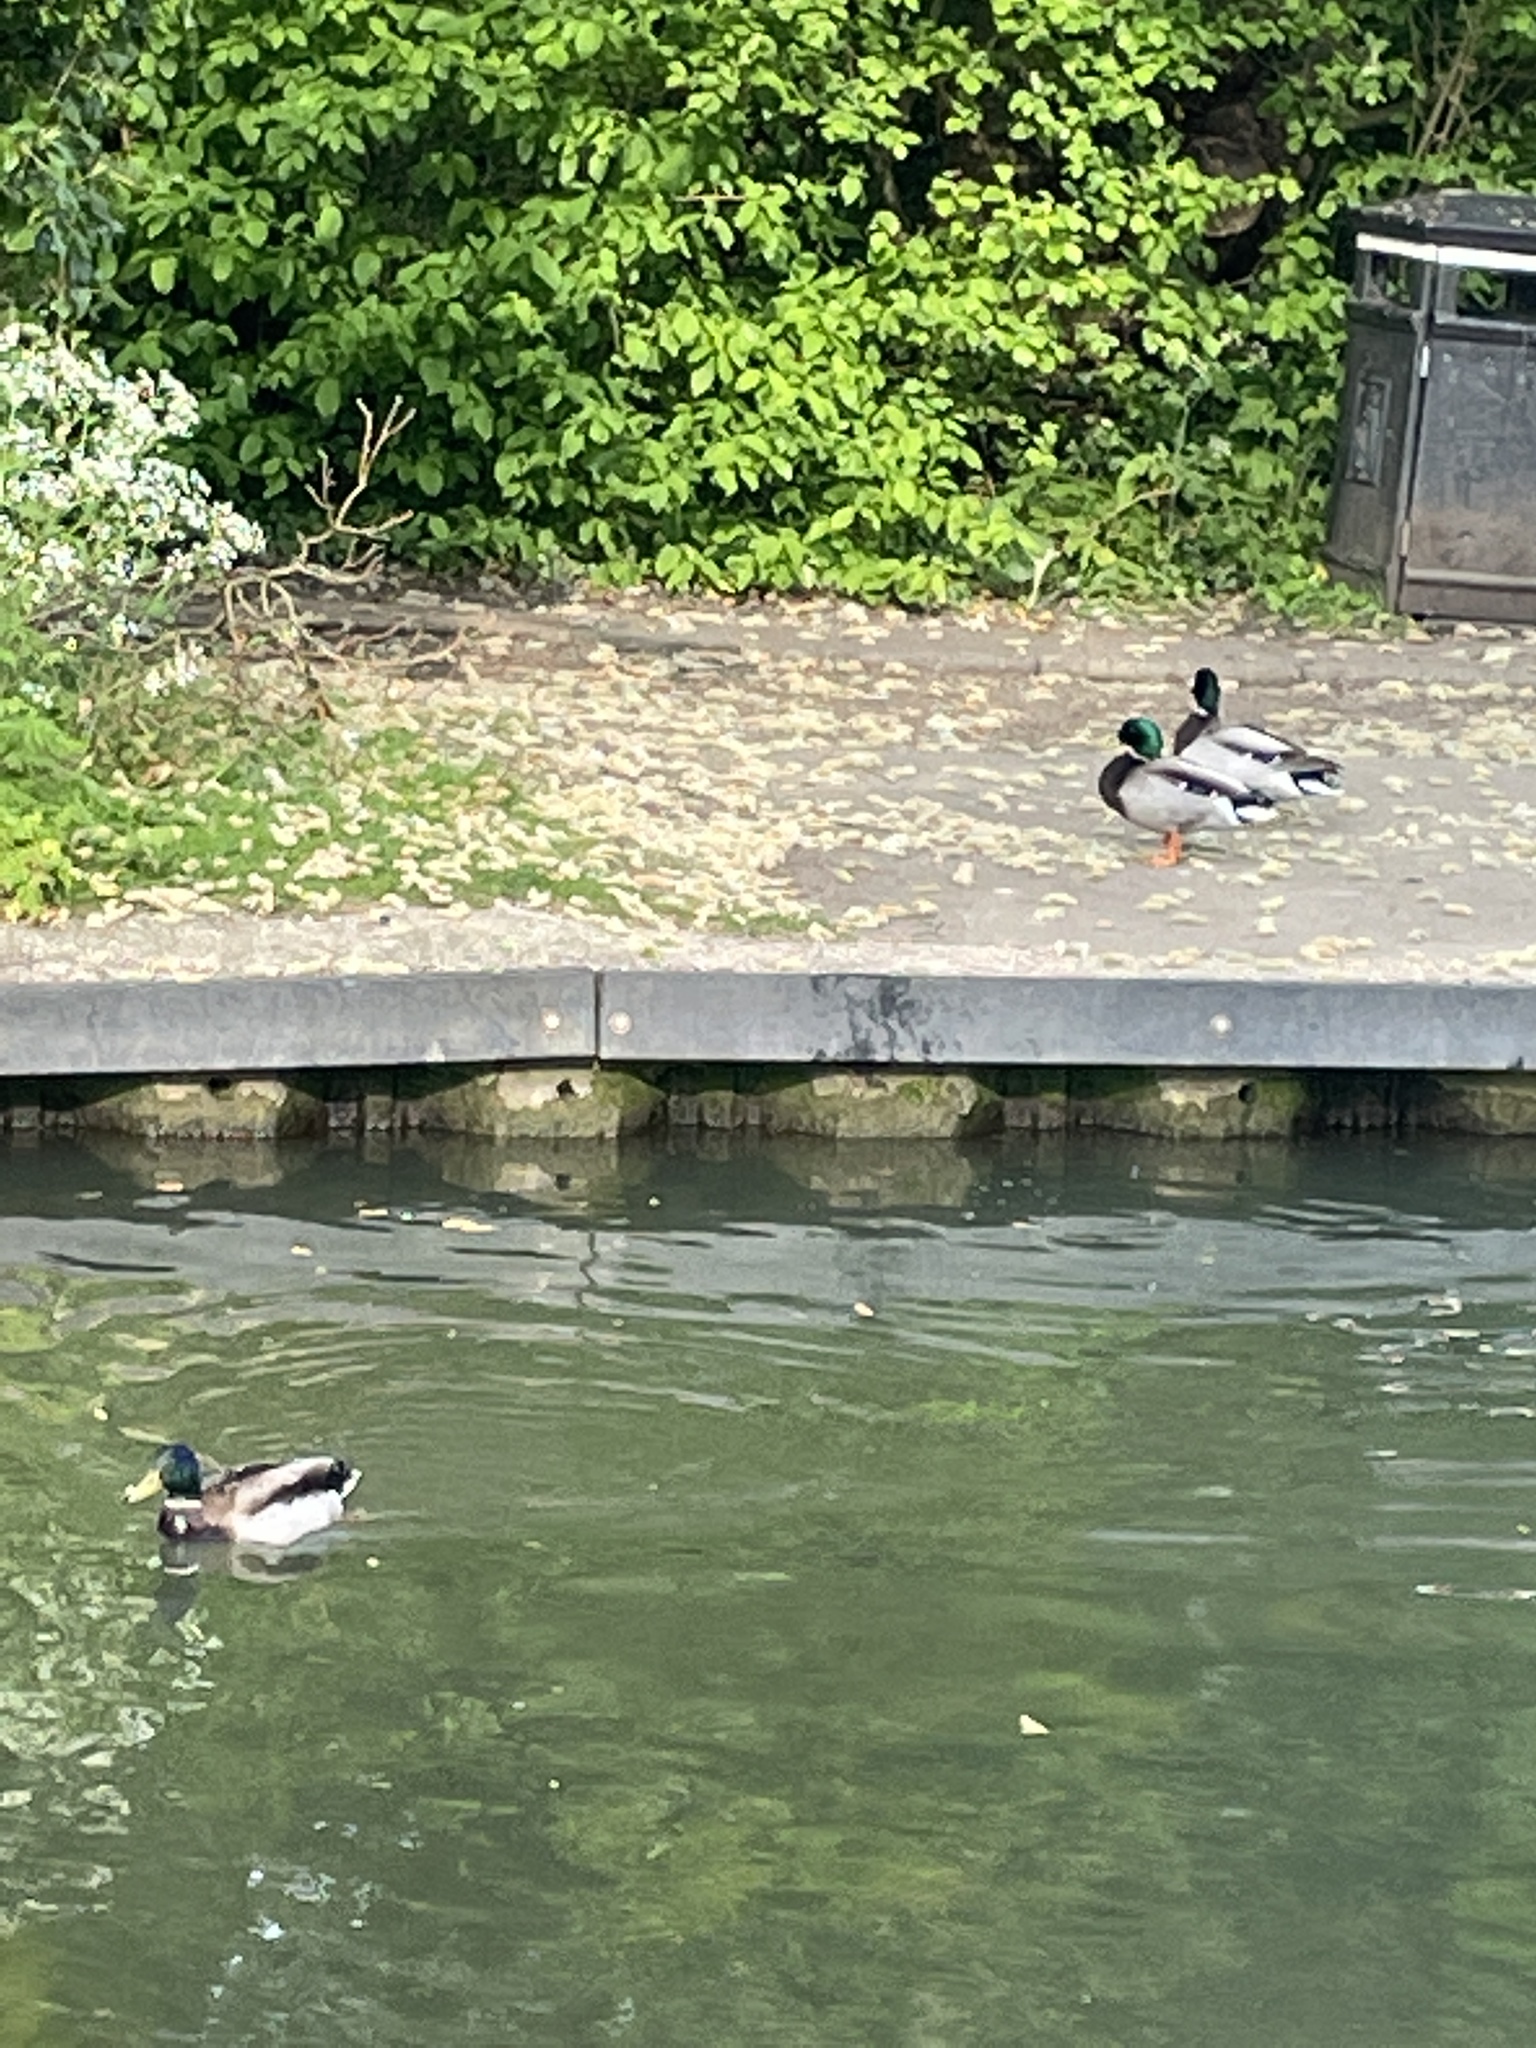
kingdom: Animalia
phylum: Chordata
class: Aves
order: Anseriformes
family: Anatidae
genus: Anas
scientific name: Anas platyrhynchos
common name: Mallard
